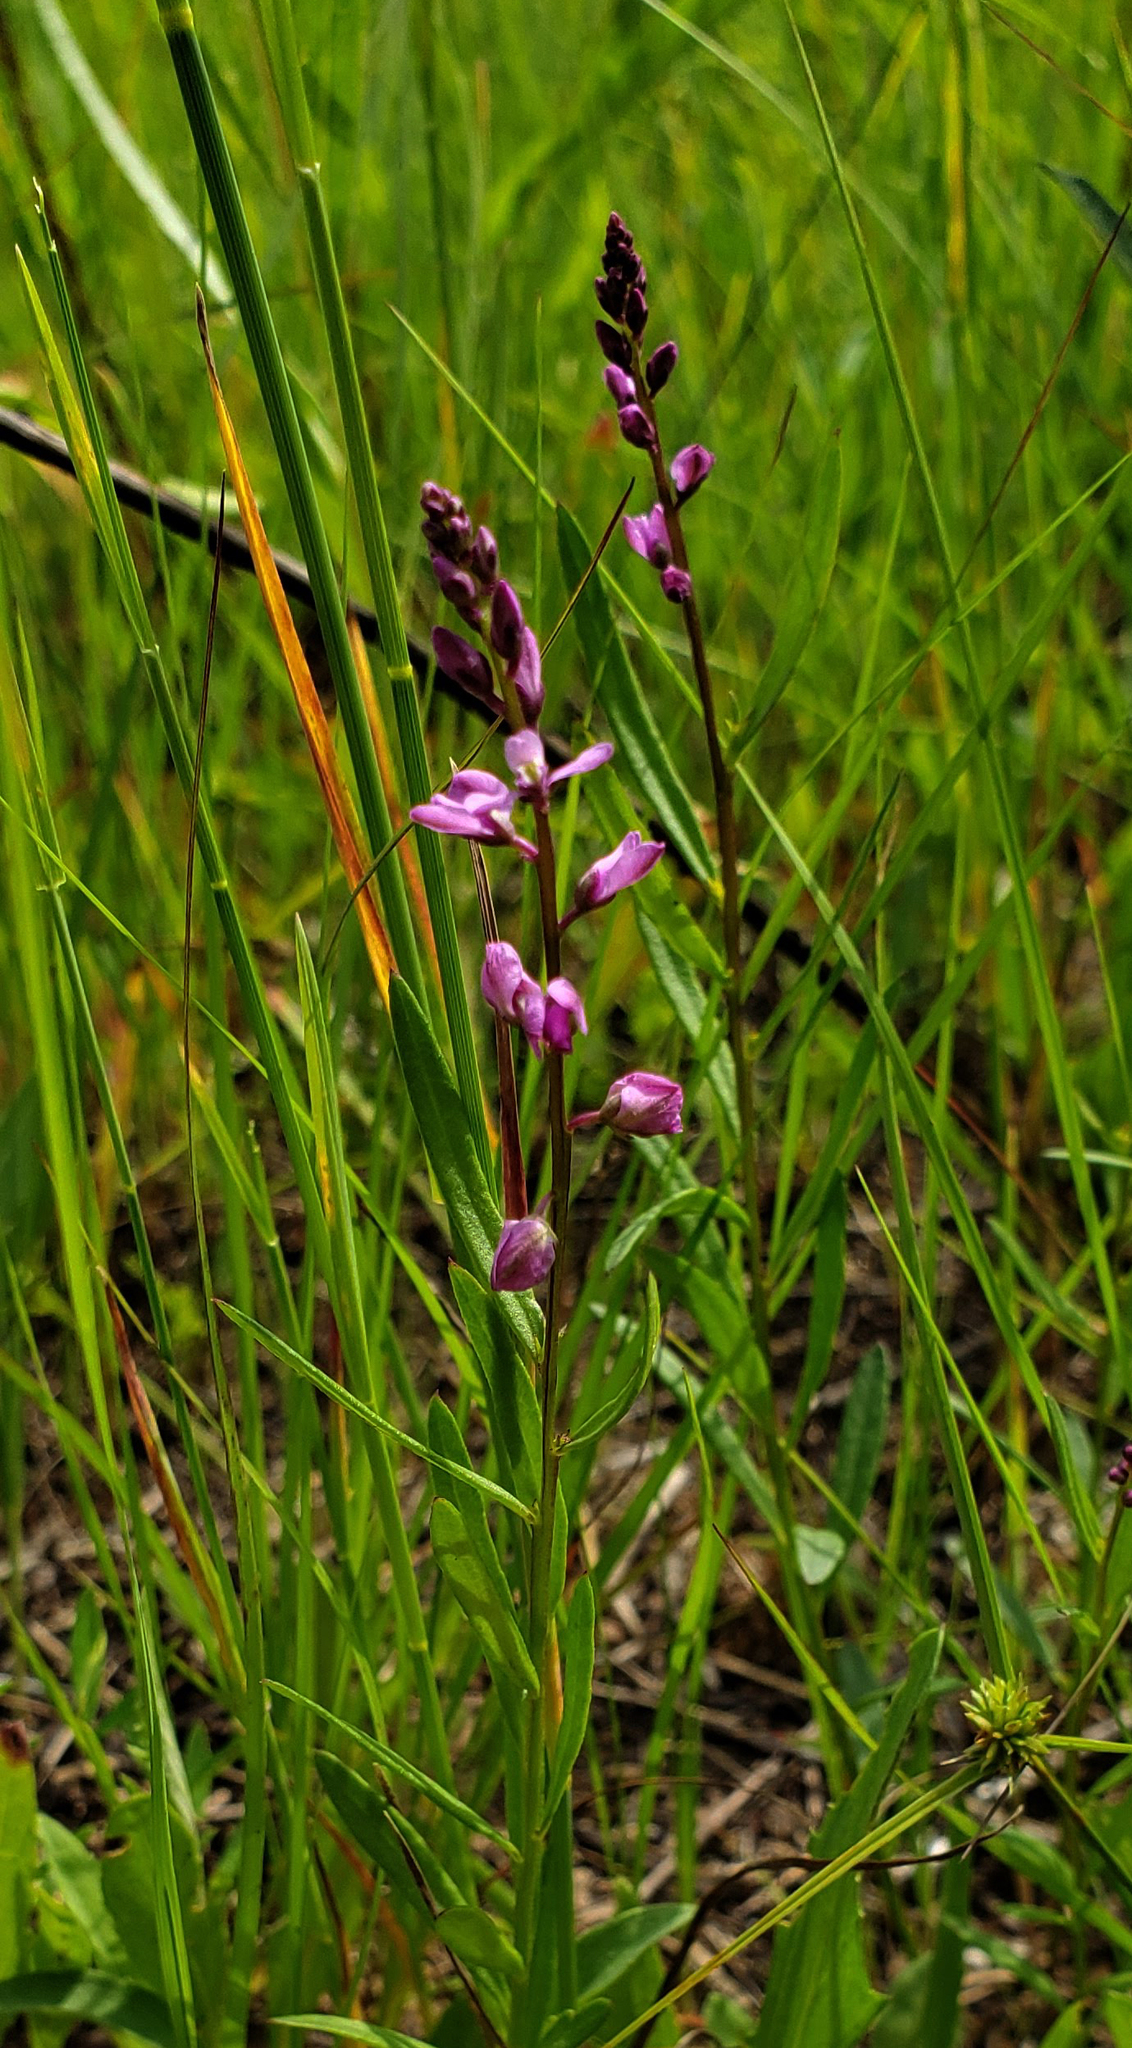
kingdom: Plantae
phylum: Tracheophyta
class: Magnoliopsida
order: Fabales
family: Polygalaceae
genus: Polygala
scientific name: Polygala polygama
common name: Bitter milkwort
